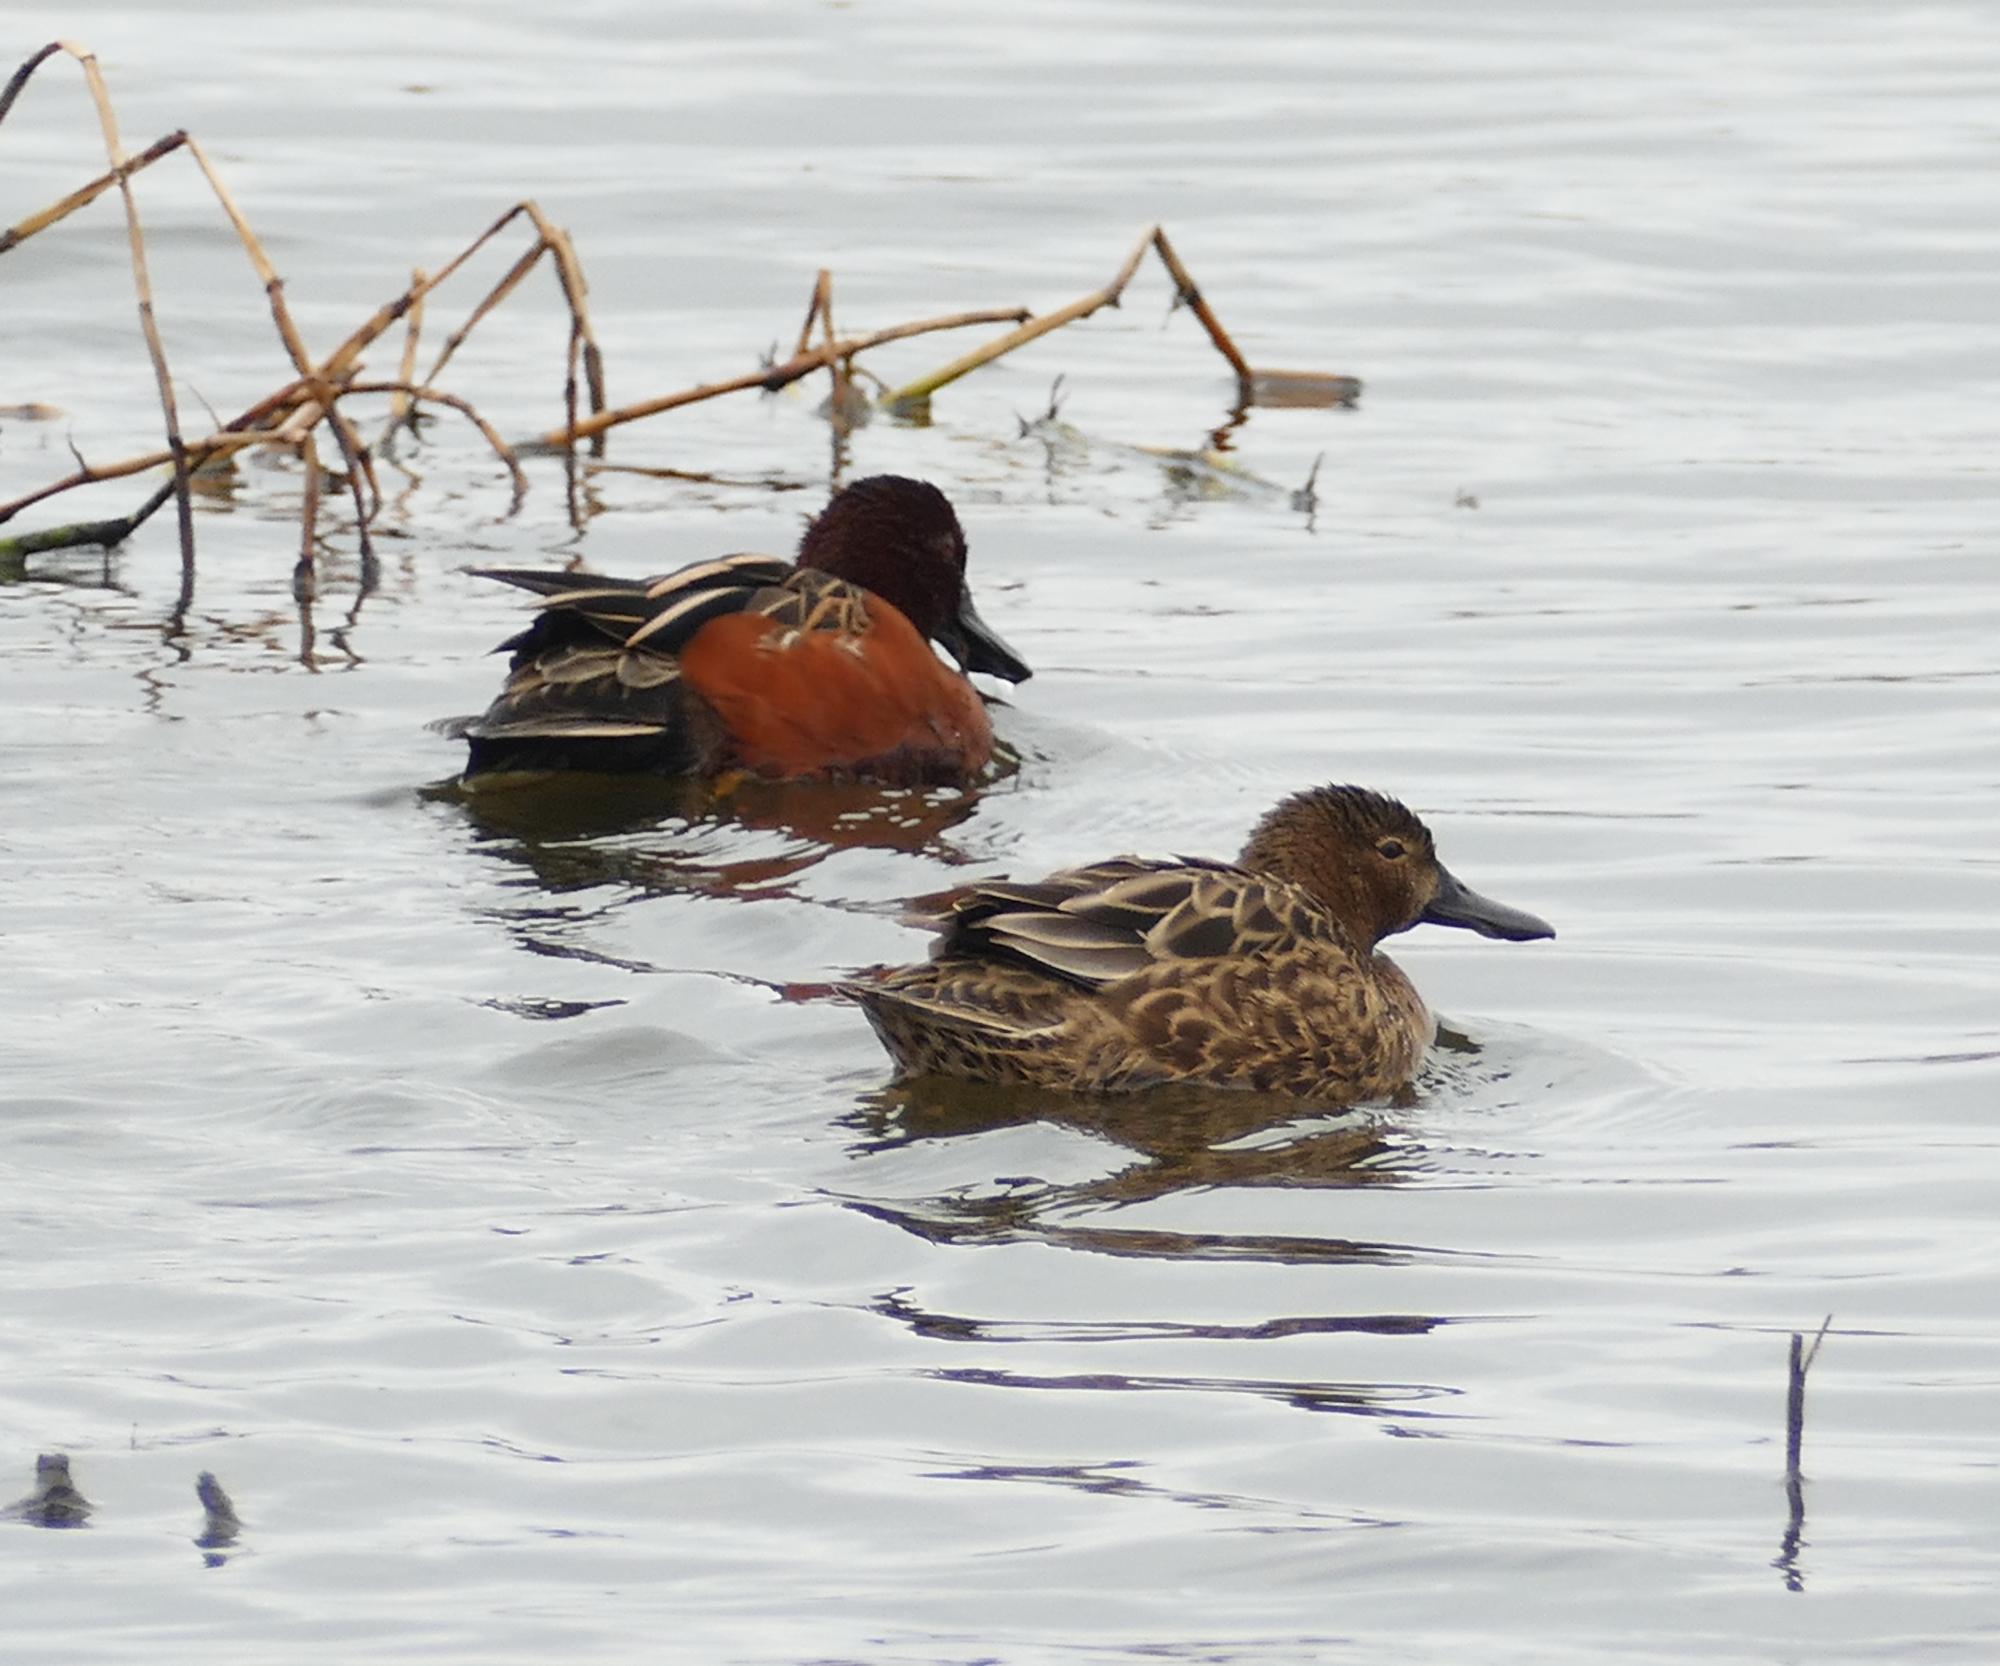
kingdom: Animalia
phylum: Chordata
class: Aves
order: Anseriformes
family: Anatidae
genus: Spatula
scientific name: Spatula cyanoptera
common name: Cinnamon teal
